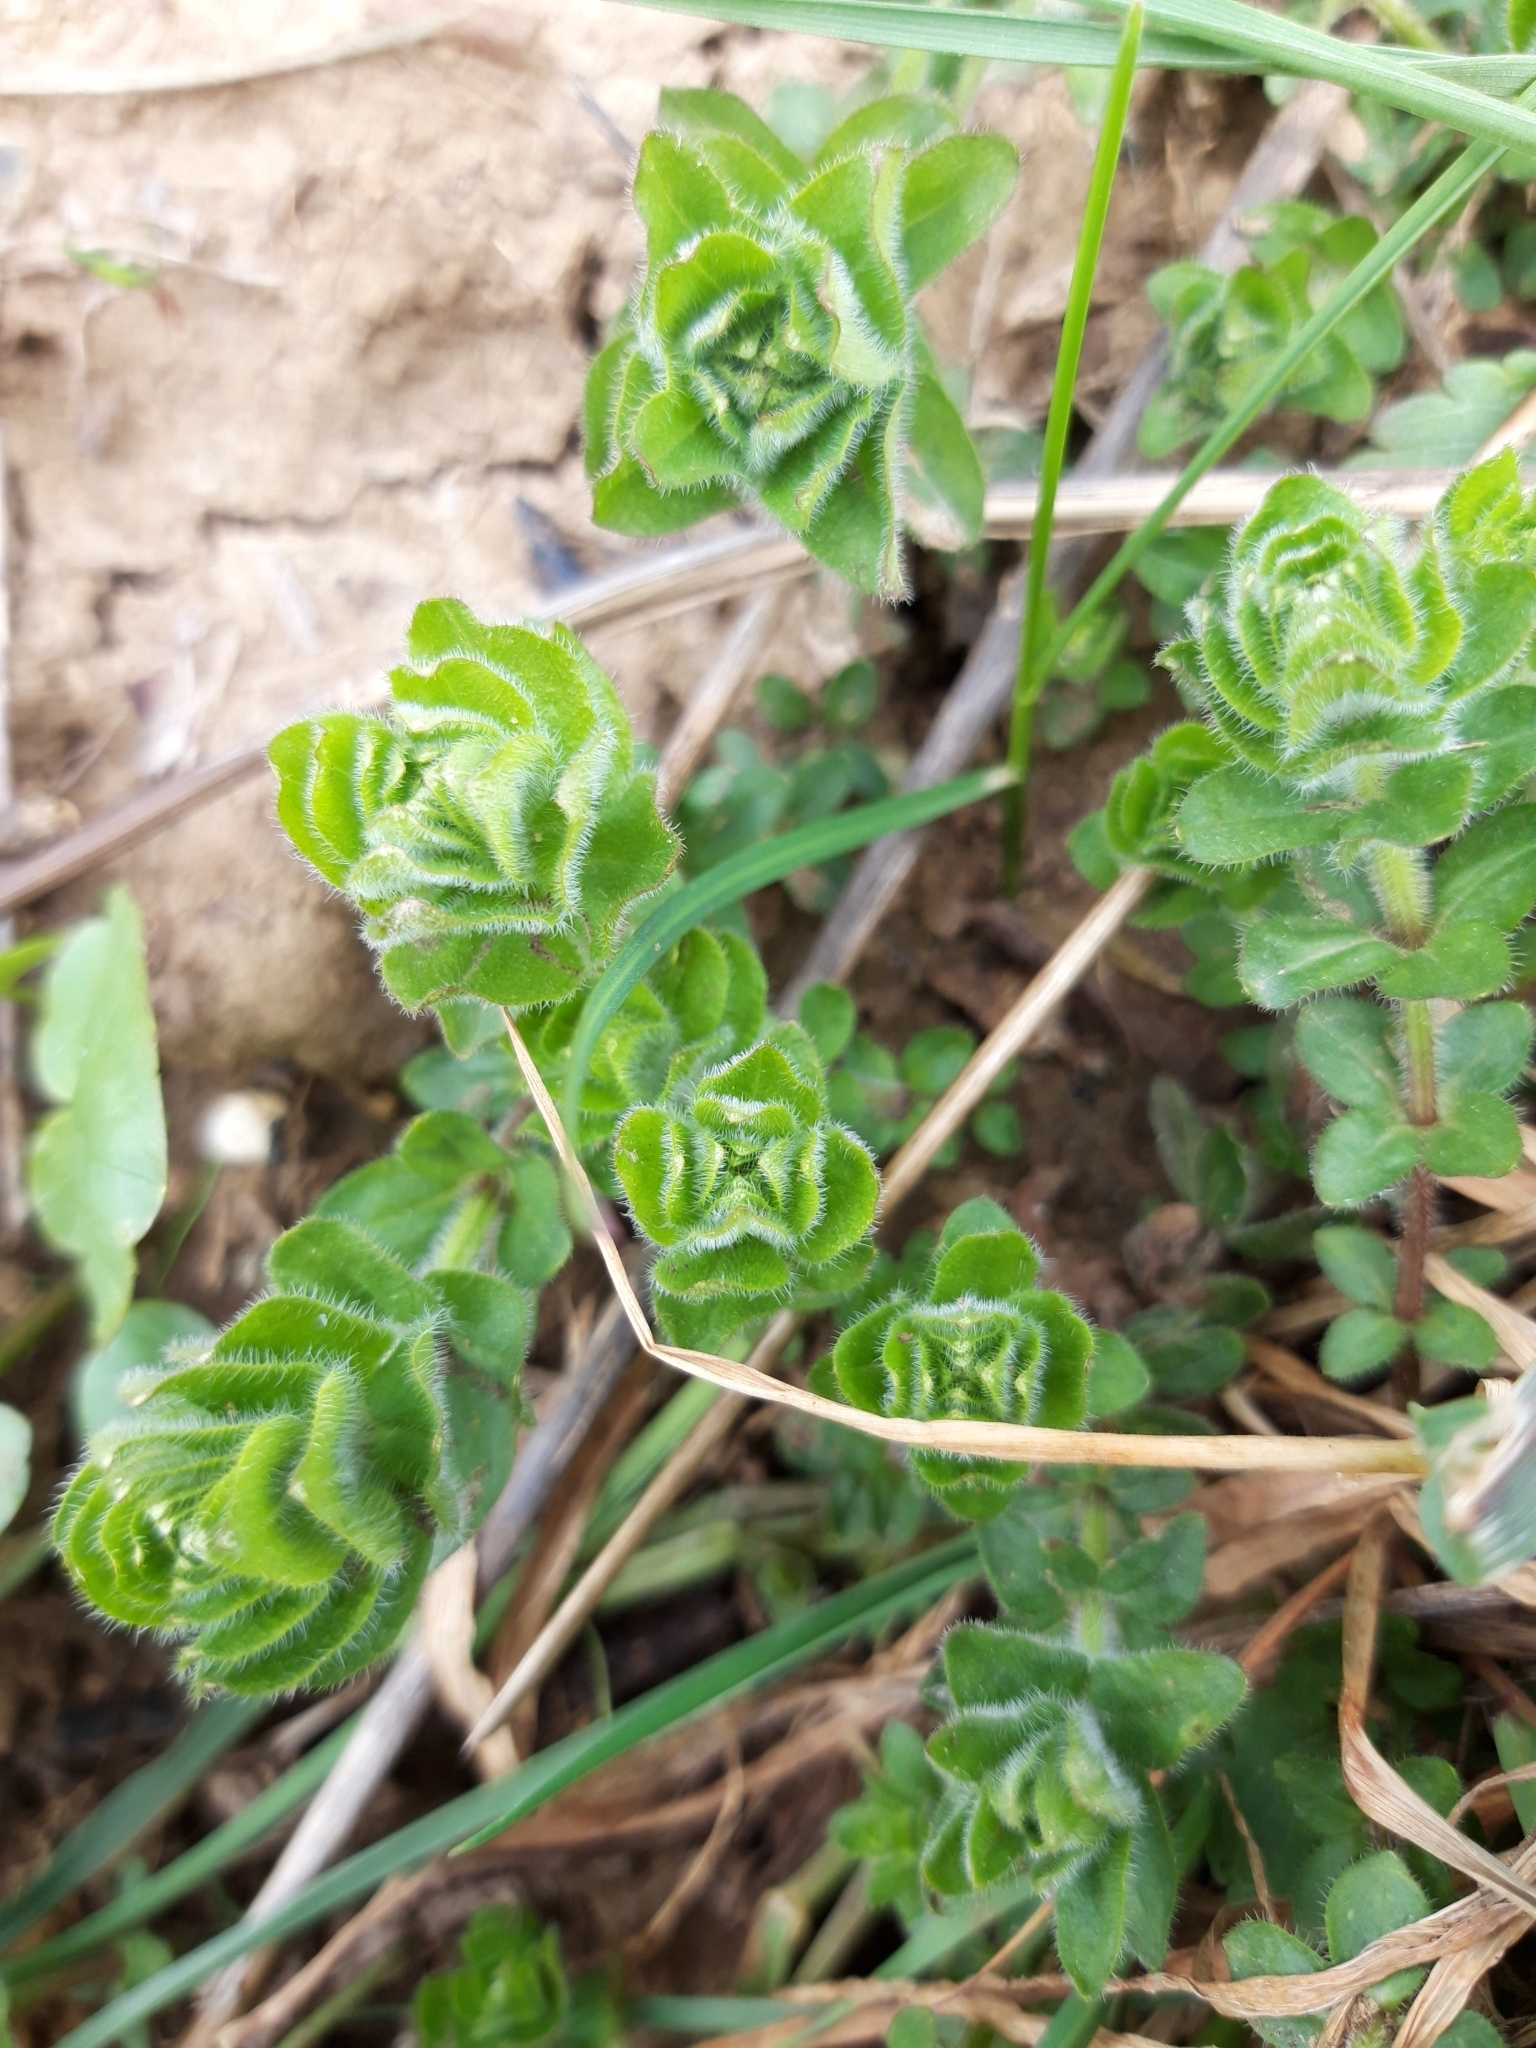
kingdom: Plantae
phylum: Tracheophyta
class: Magnoliopsida
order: Gentianales
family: Rubiaceae
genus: Cruciata
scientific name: Cruciata laevipes
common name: Crosswort
